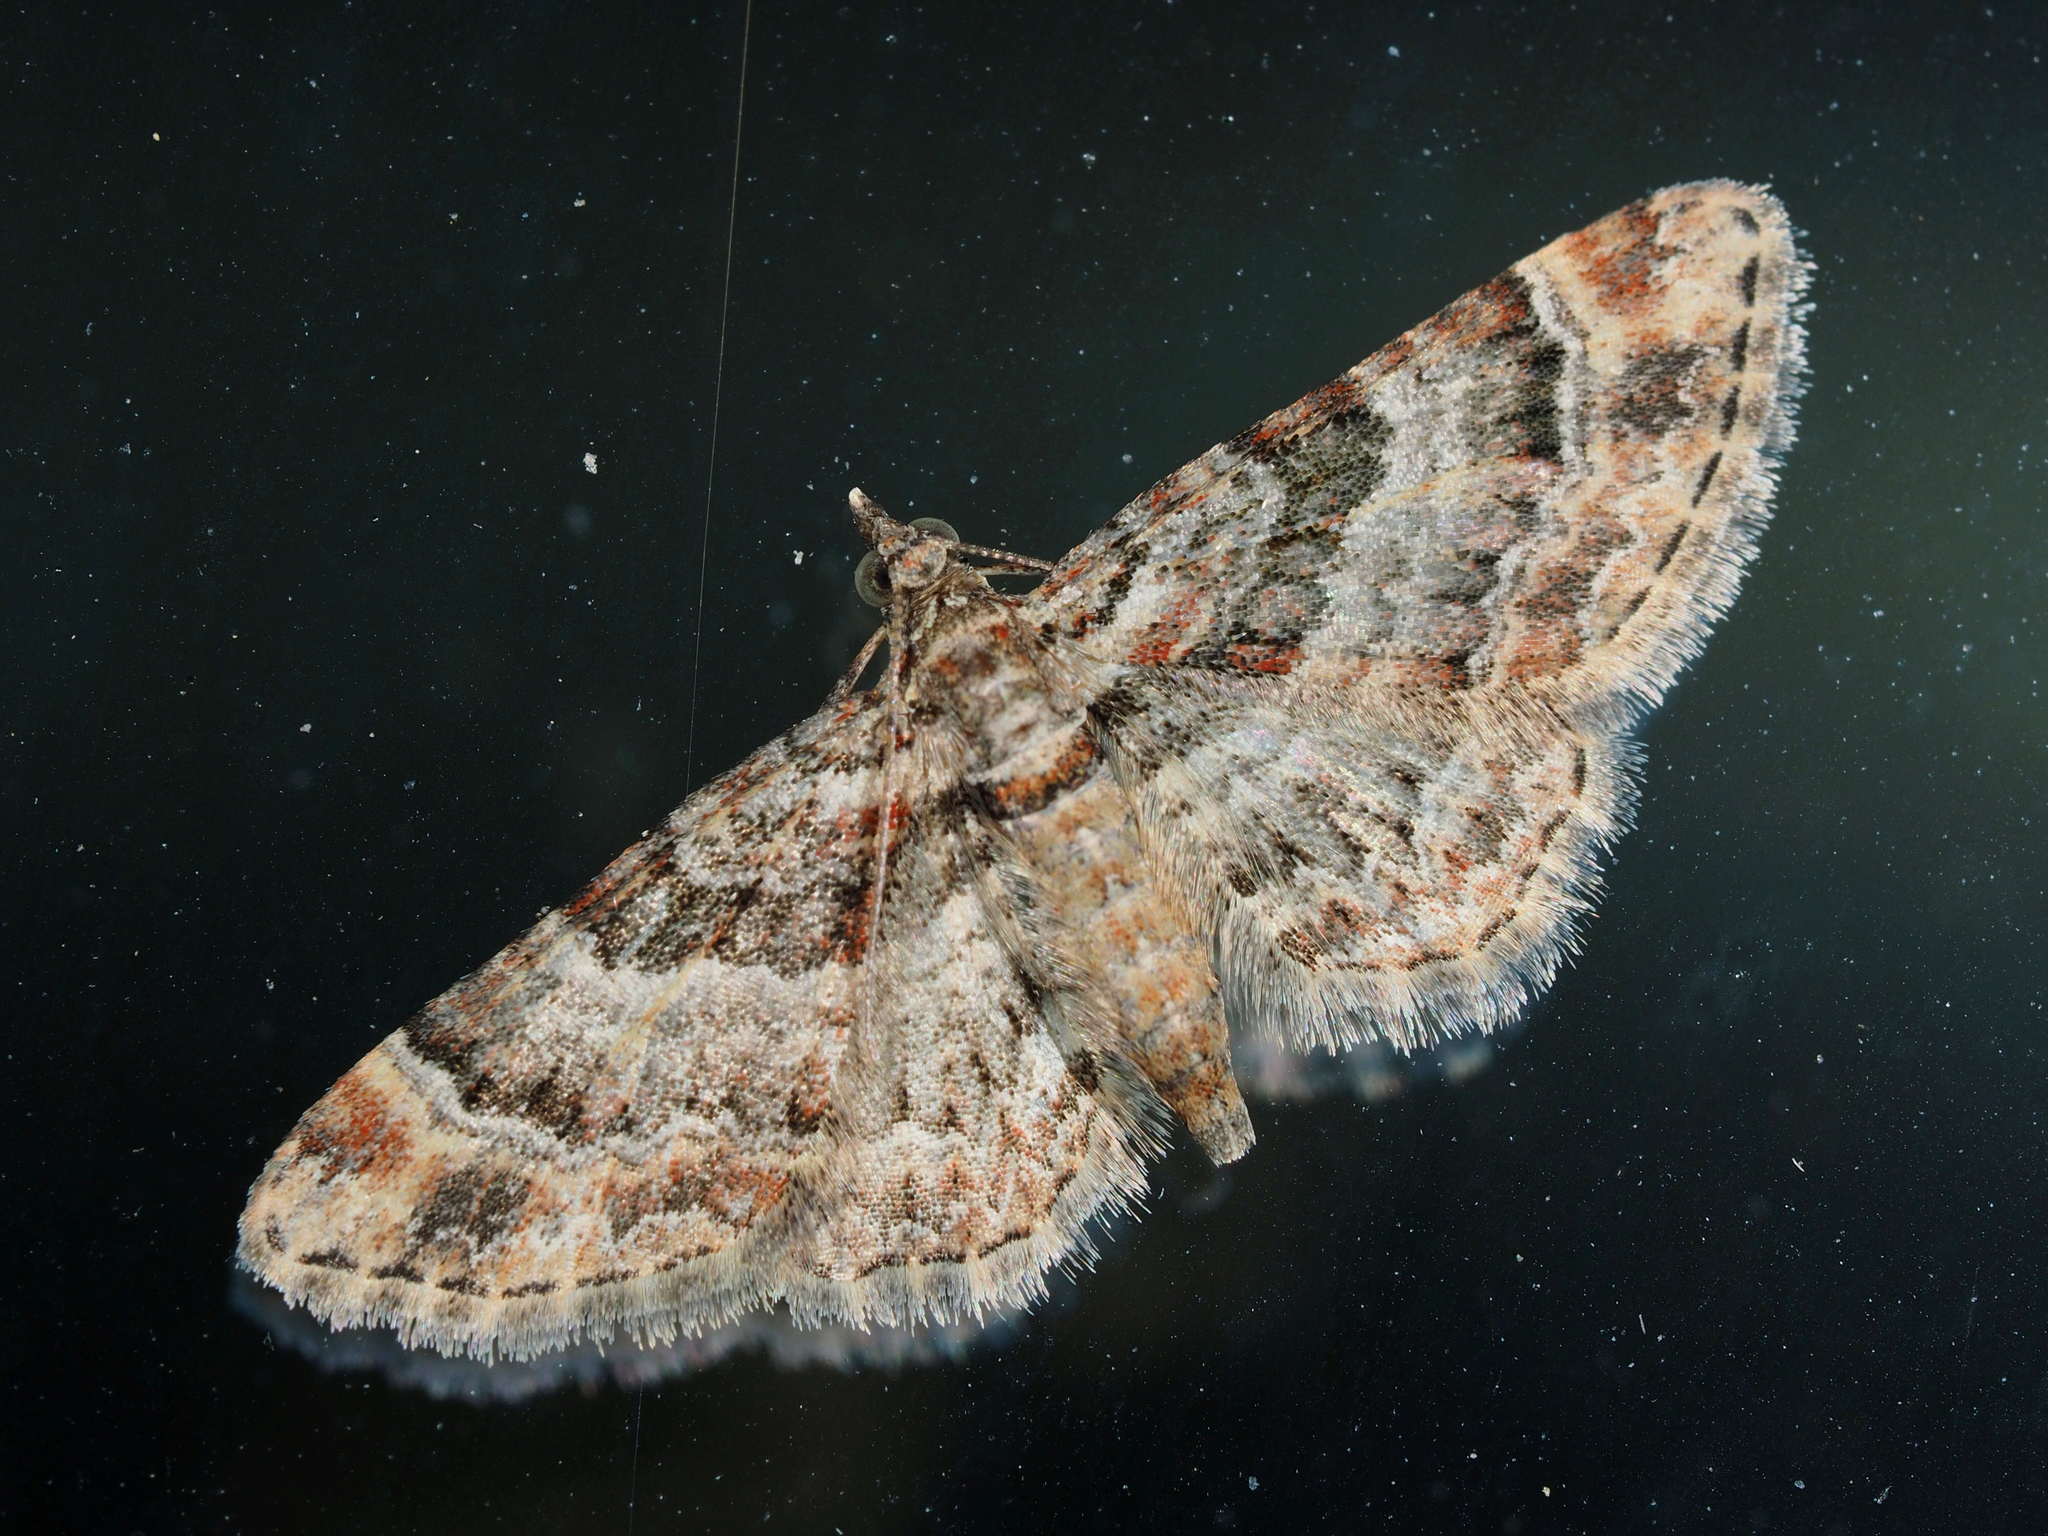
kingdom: Animalia
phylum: Arthropoda
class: Insecta
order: Lepidoptera
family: Geometridae
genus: Gymnoscelis
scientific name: Gymnoscelis rufifasciata
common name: Double-striped pug
